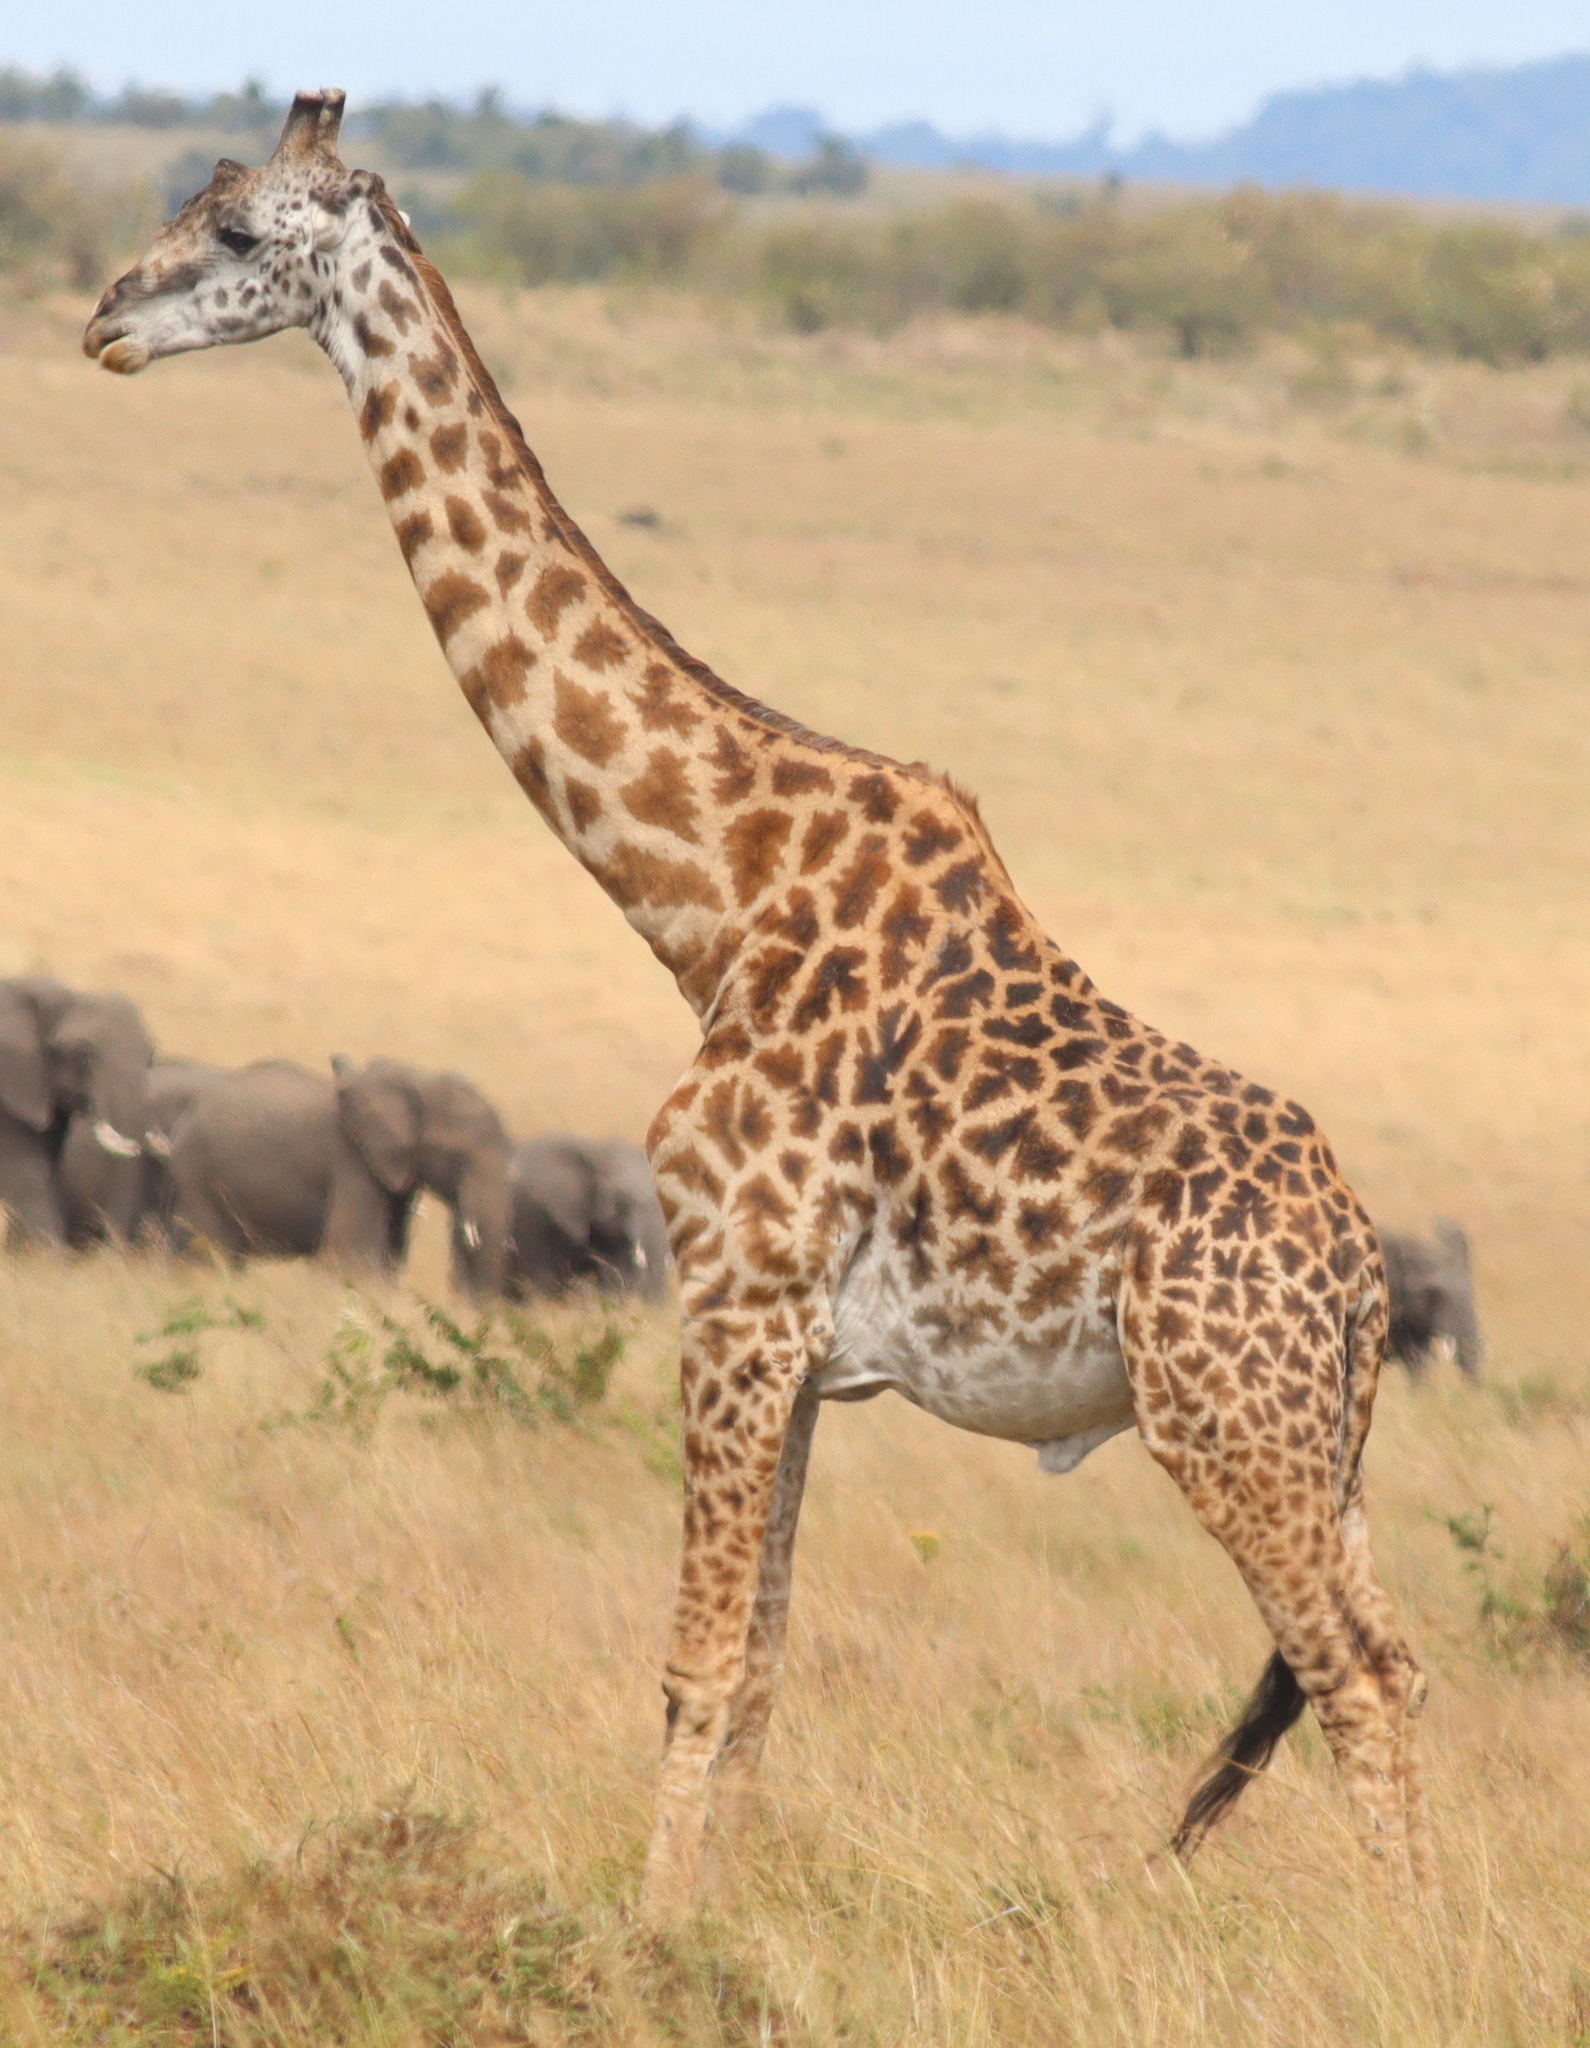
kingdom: Animalia
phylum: Chordata
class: Mammalia
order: Artiodactyla
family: Giraffidae
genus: Giraffa
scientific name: Giraffa tippelskirchi
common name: Masai giraffe
